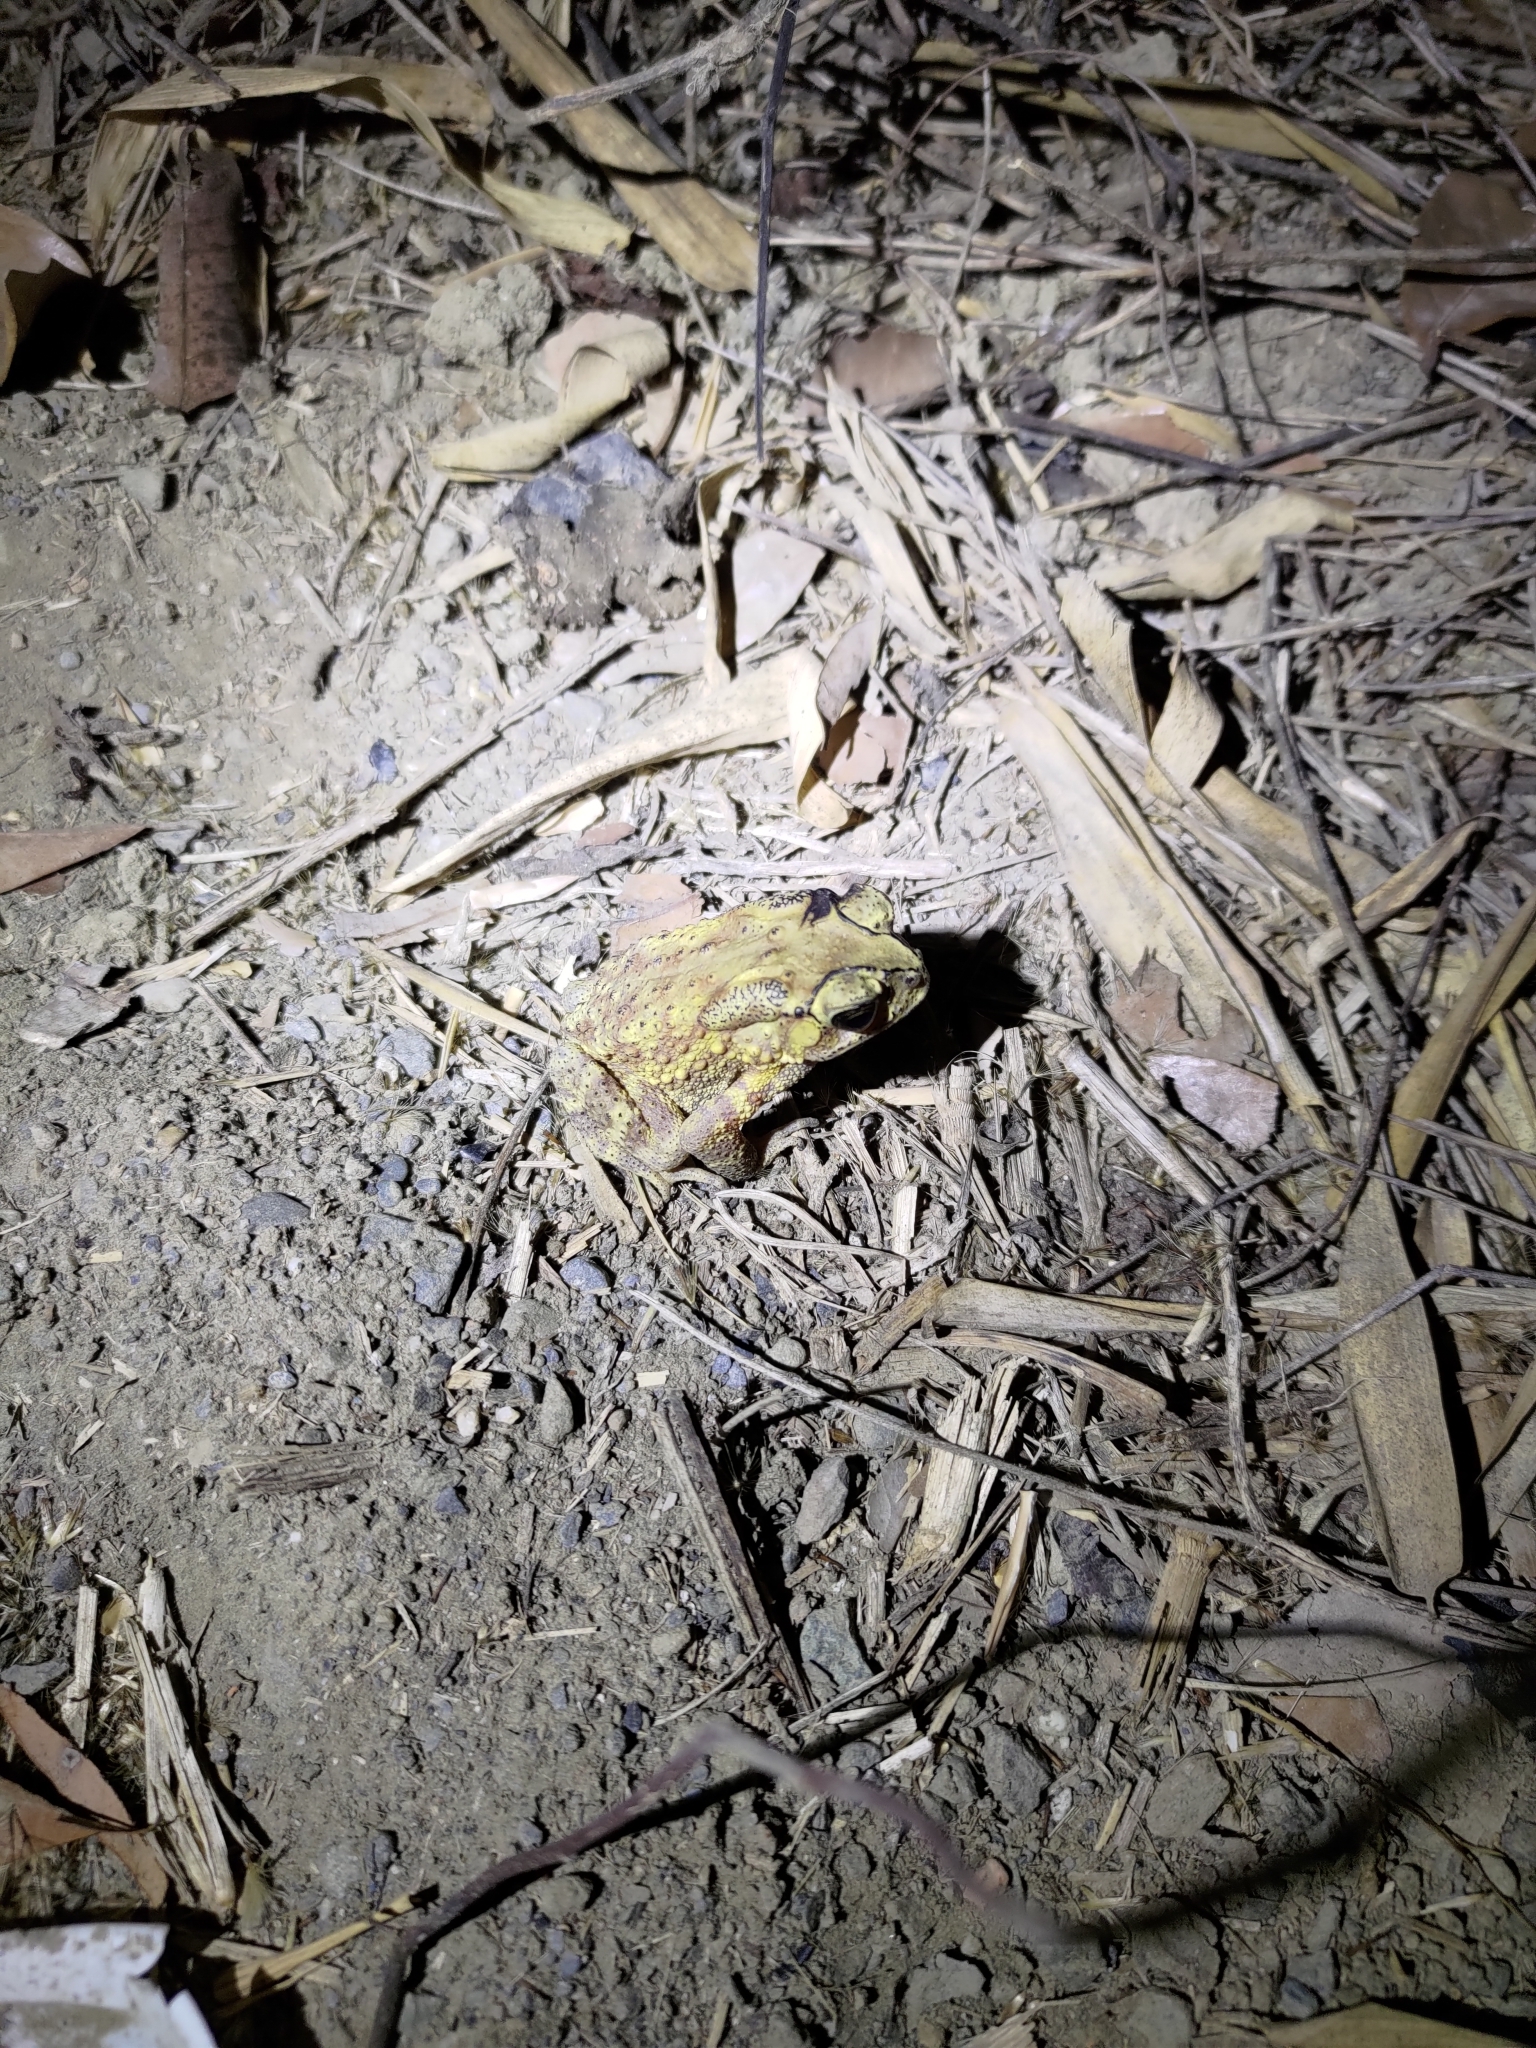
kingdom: Animalia
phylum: Chordata
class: Amphibia
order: Anura
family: Bufonidae
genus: Duttaphrynus
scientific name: Duttaphrynus melanostictus
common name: Common sunda toad
